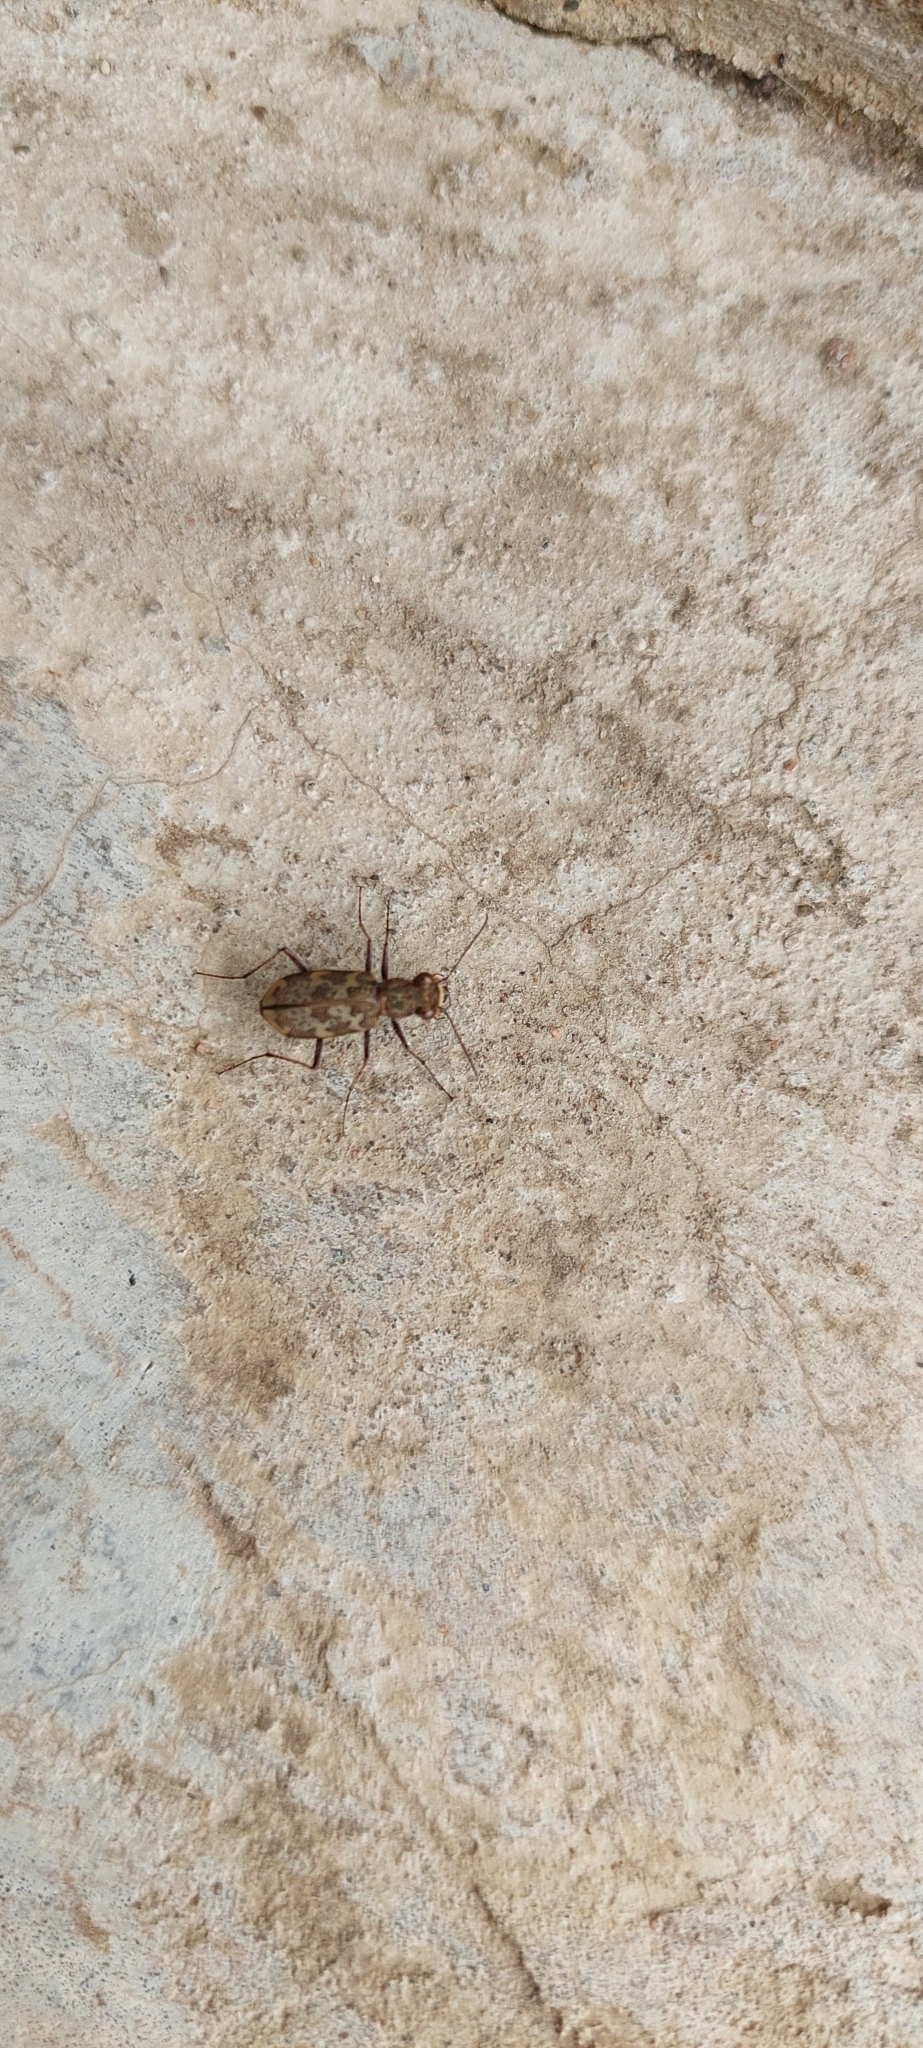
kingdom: Animalia
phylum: Arthropoda
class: Insecta
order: Coleoptera
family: Carabidae
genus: Cylindera
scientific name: Cylindera apiata
